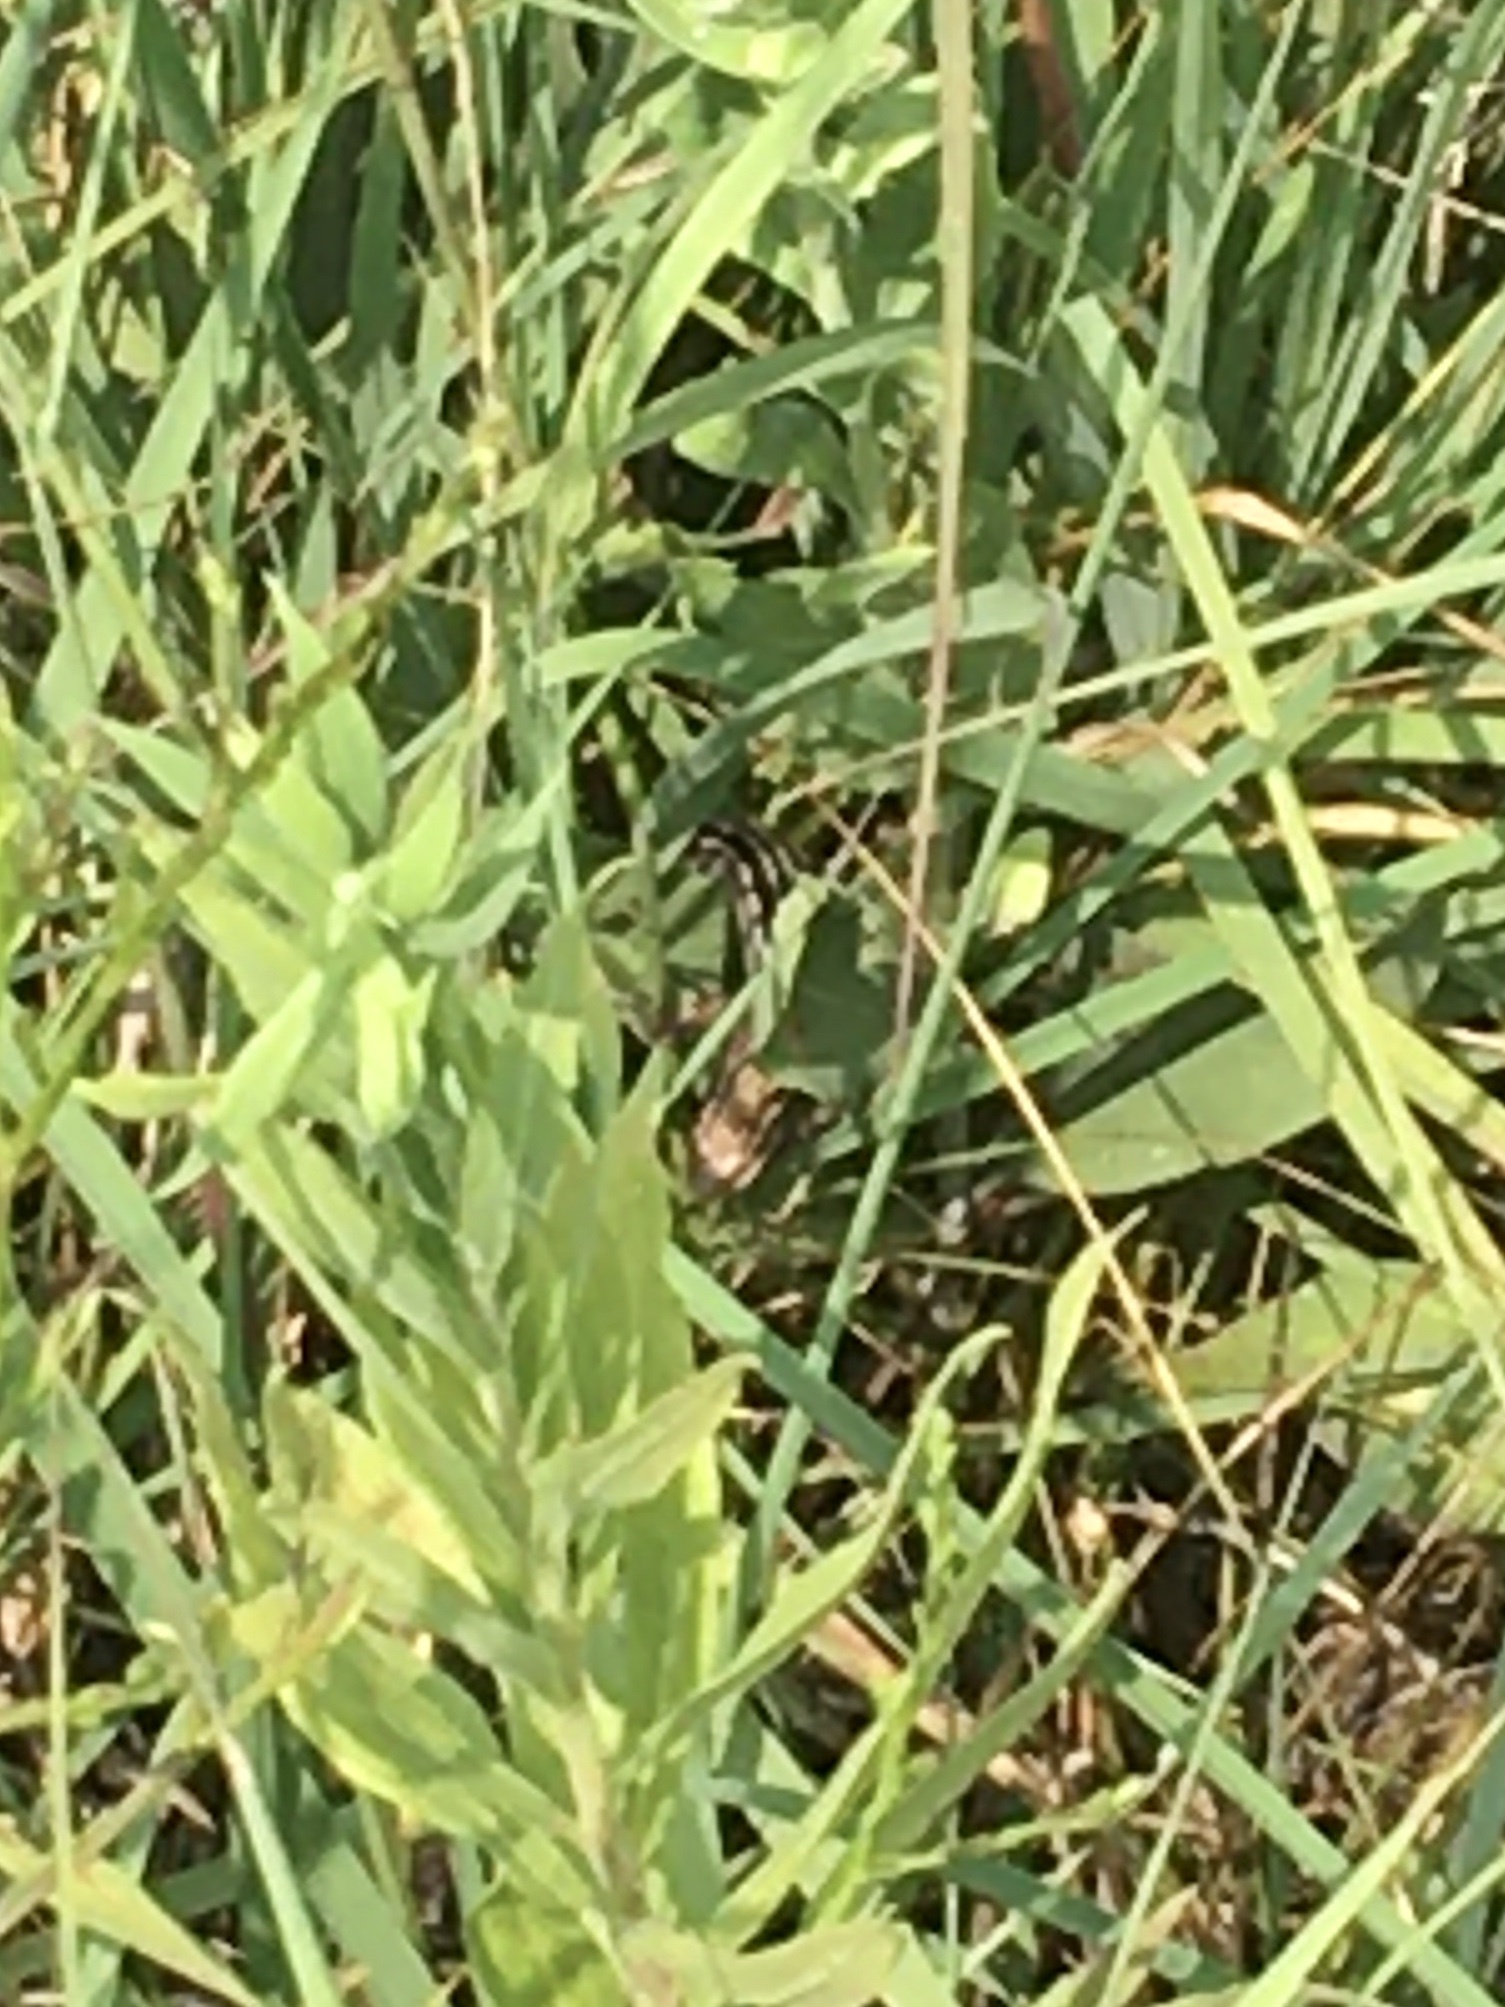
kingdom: Animalia
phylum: Chordata
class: Squamata
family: Scincidae
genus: Plestiodon
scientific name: Plestiodon septentrionalis
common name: Northern prairie skink
